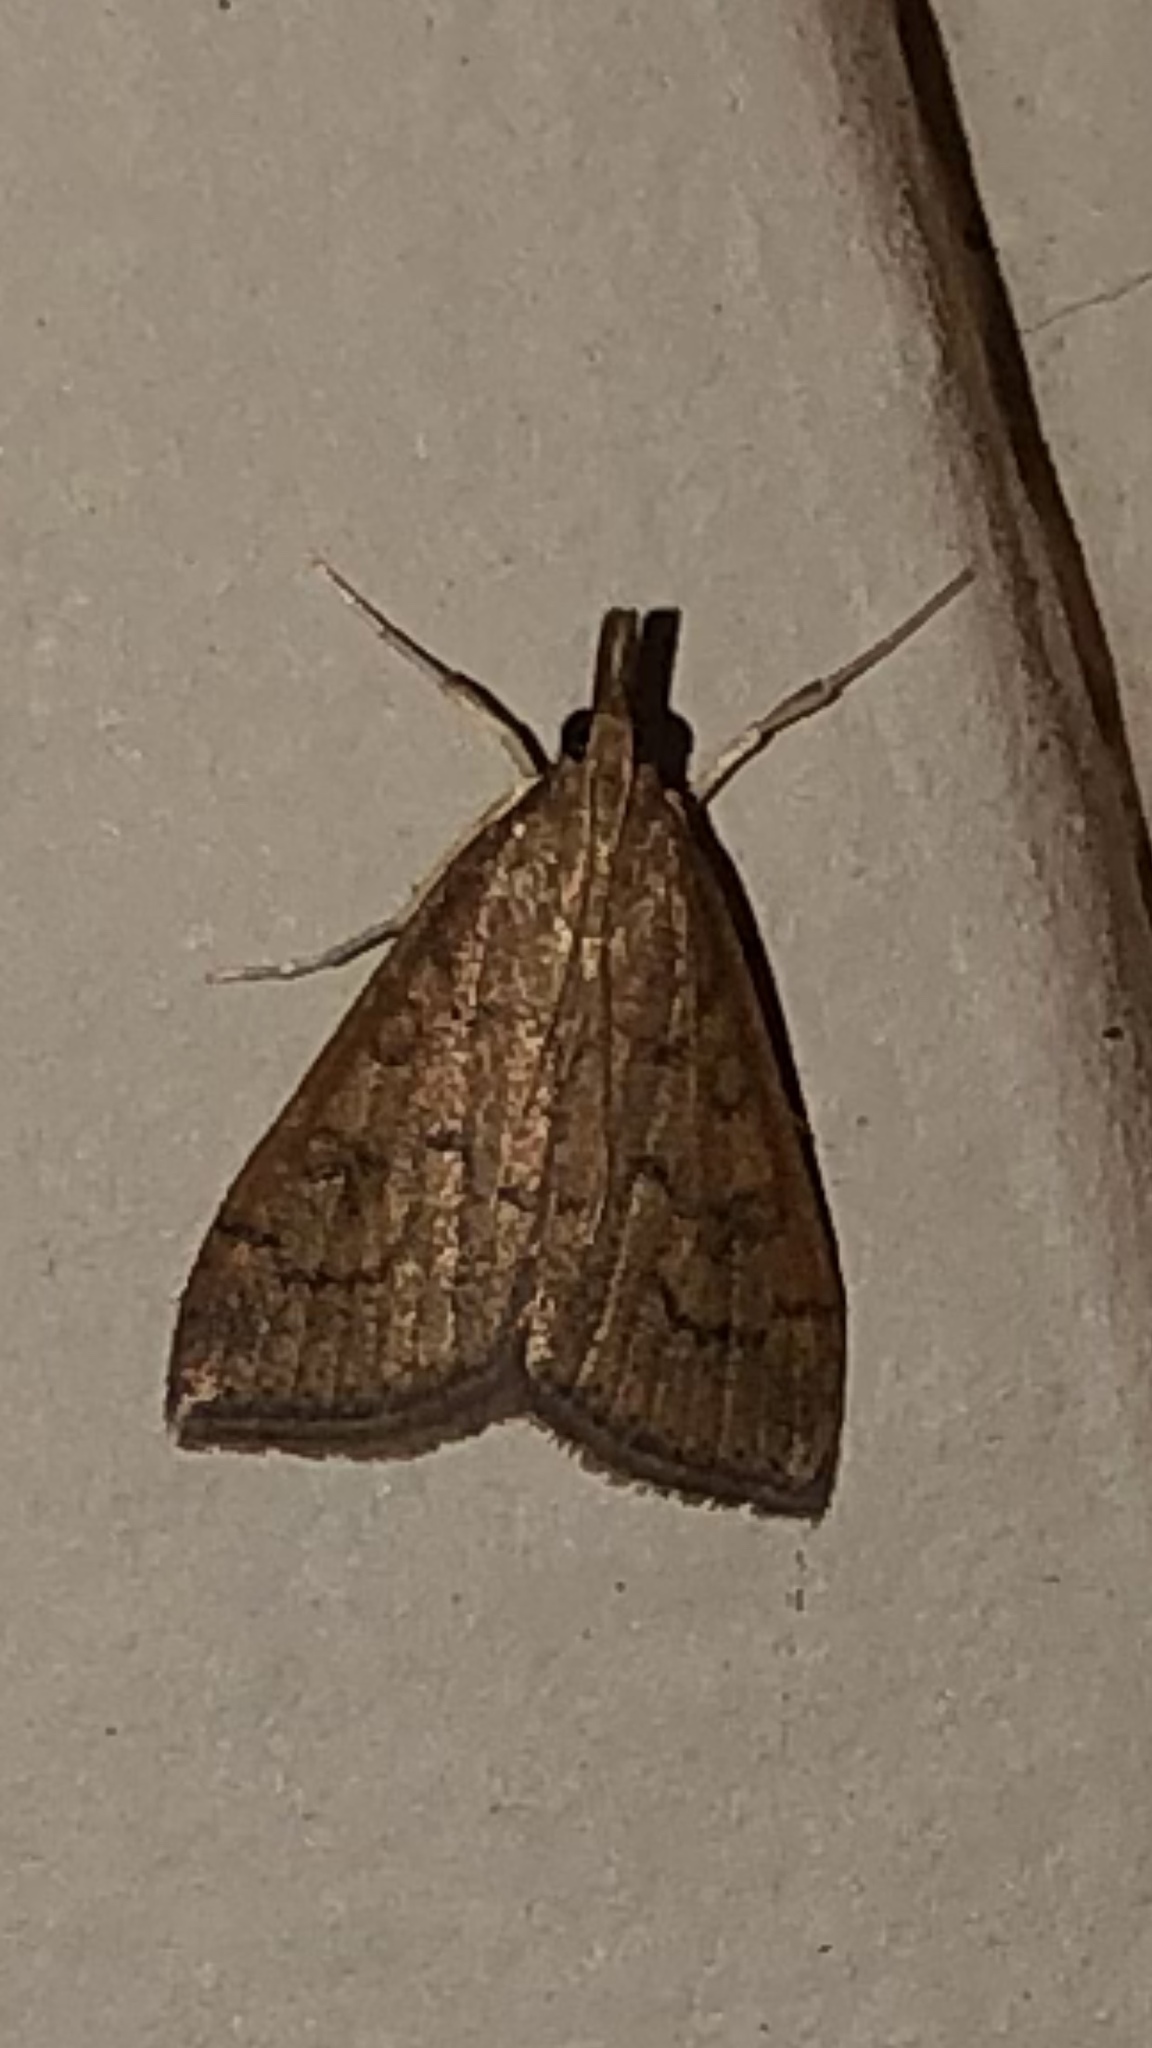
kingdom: Animalia
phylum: Arthropoda
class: Insecta
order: Lepidoptera
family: Crambidae
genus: Udea
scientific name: Udea rubigalis
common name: Celery leaftier moth
